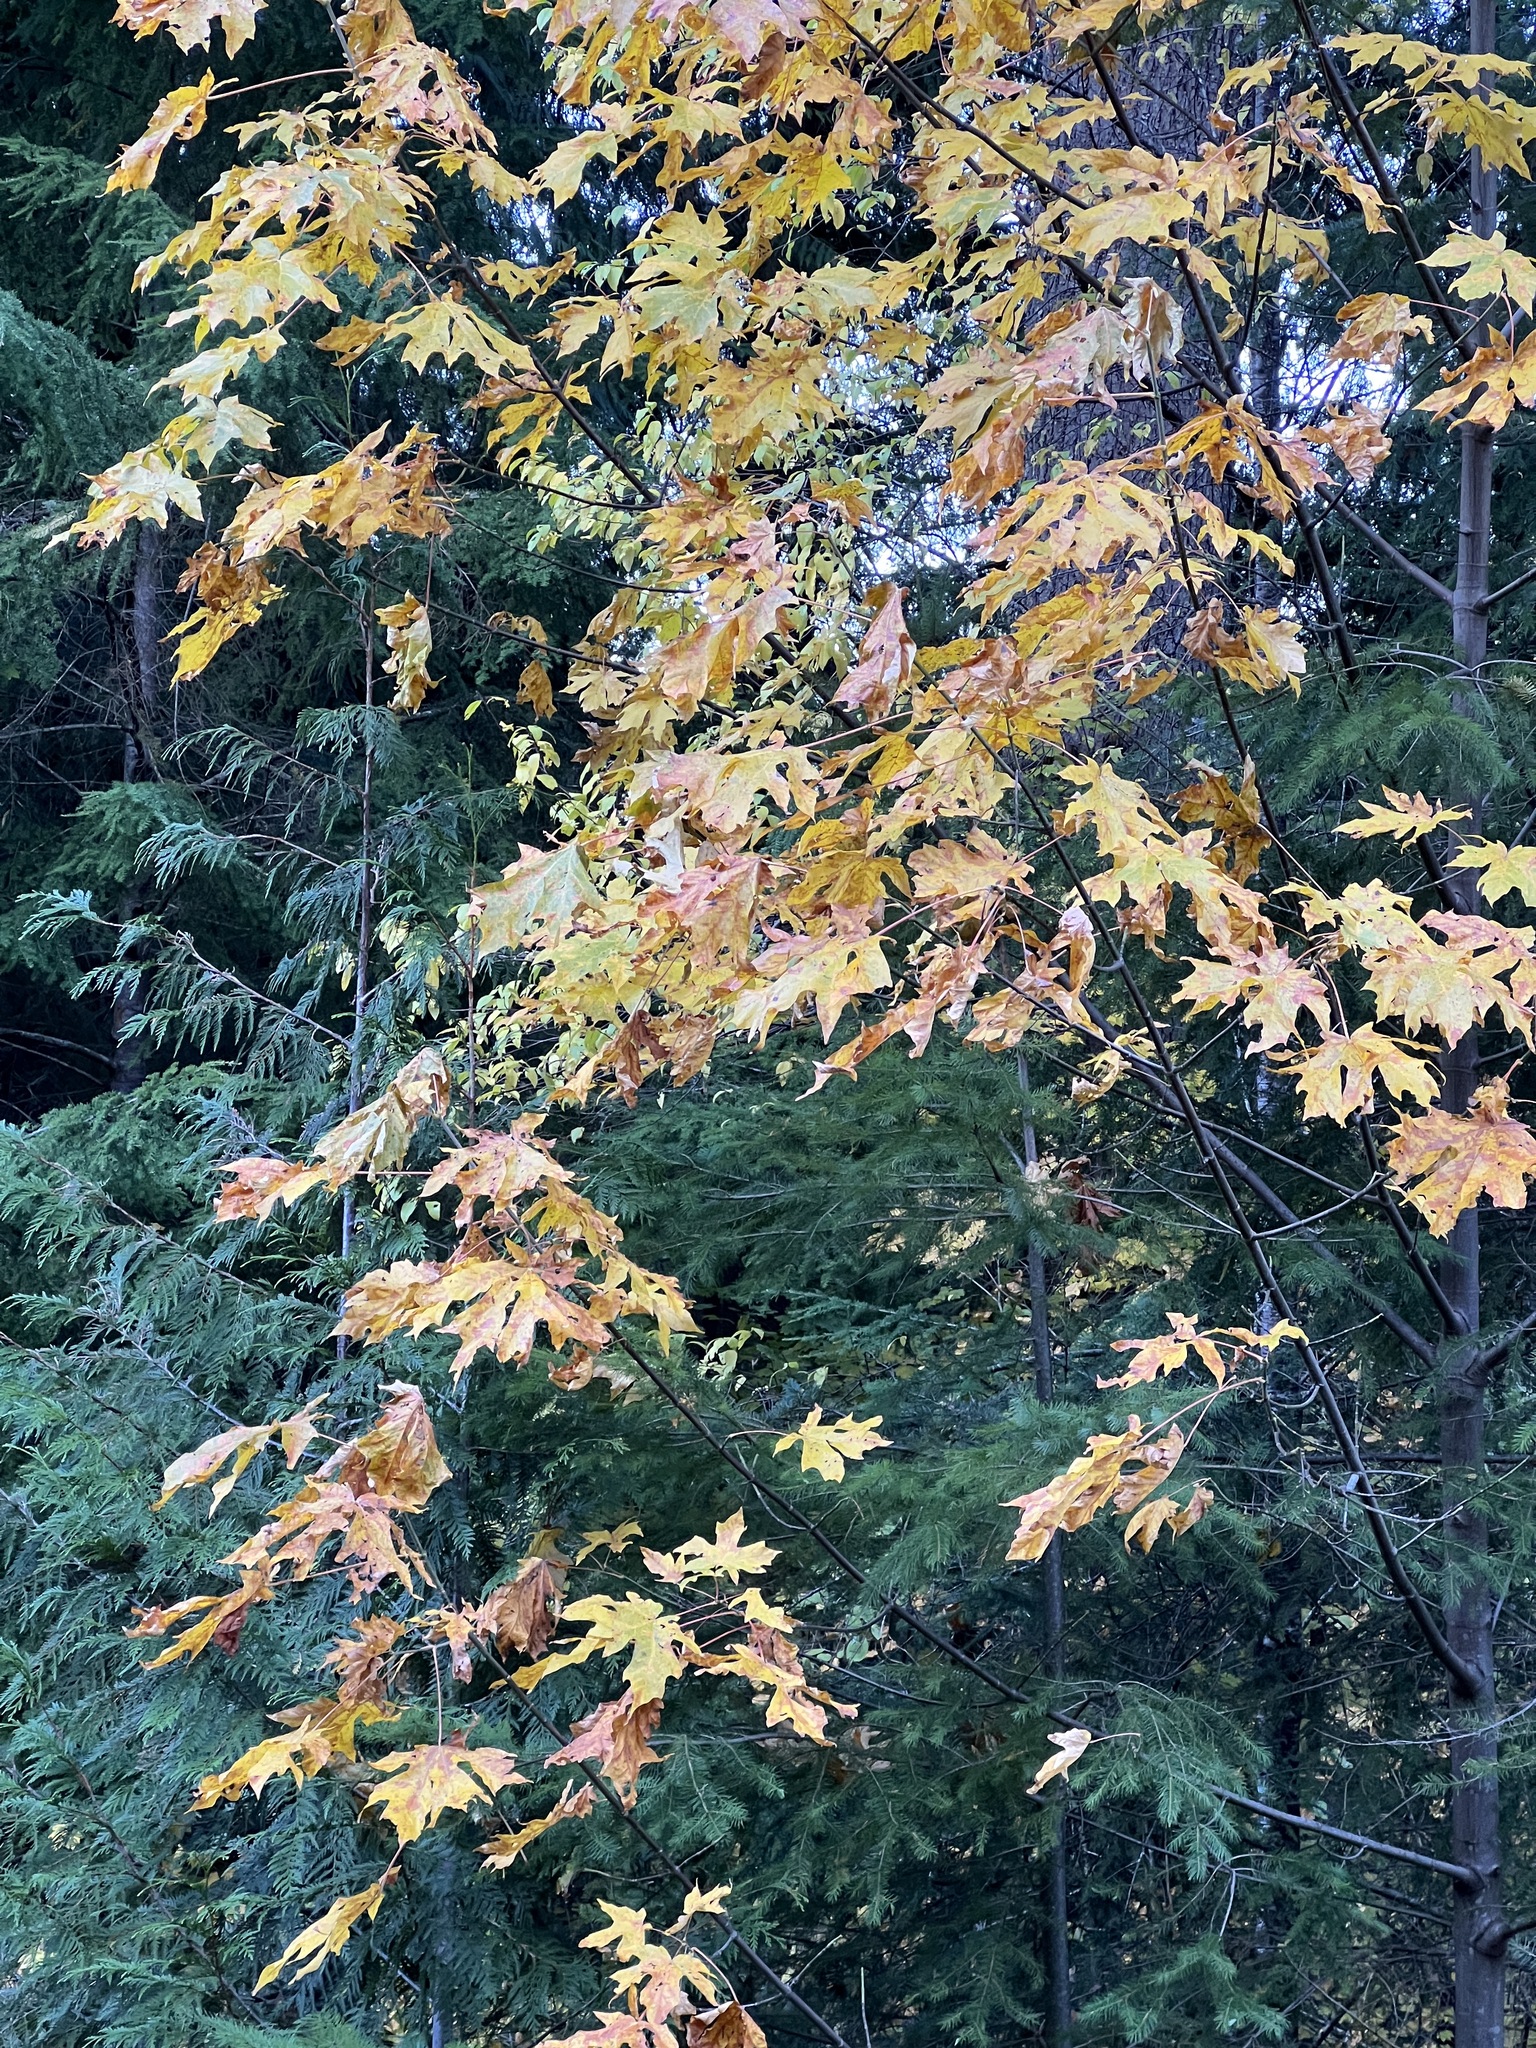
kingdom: Plantae
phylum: Tracheophyta
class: Magnoliopsida
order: Sapindales
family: Sapindaceae
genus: Acer
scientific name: Acer macrophyllum
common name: Oregon maple
